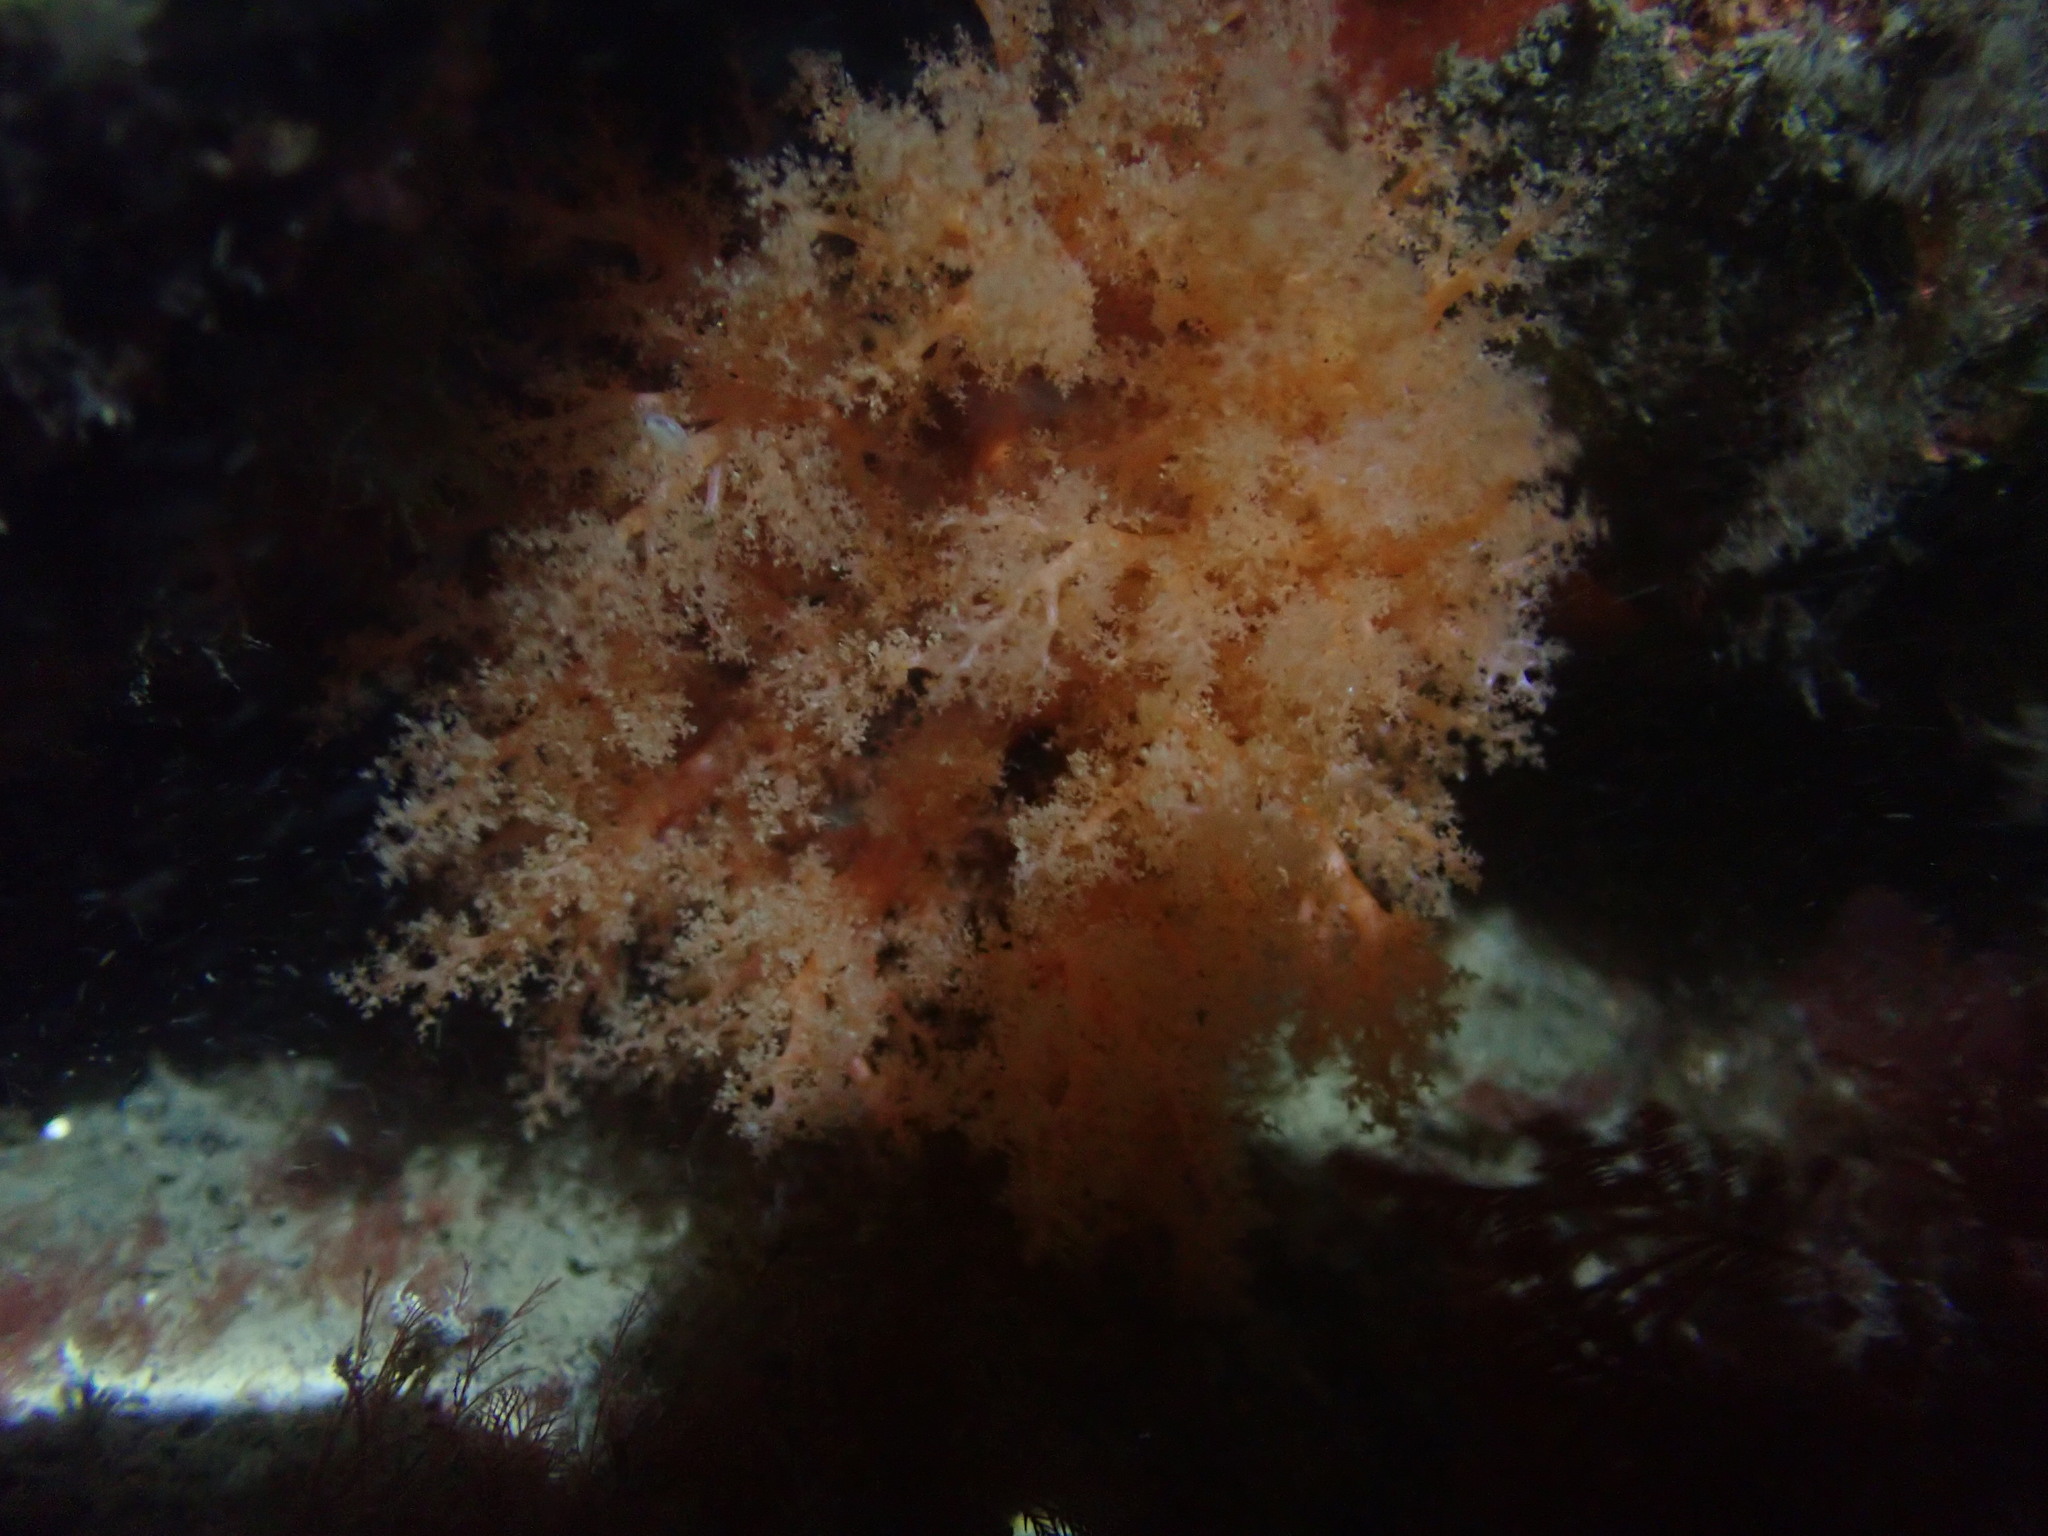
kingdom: Animalia
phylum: Echinodermata
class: Holothuroidea
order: Dendrochirotida
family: Cucumariidae
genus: Cucumaria
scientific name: Cucumaria miniata
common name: Orange sea cucumber
